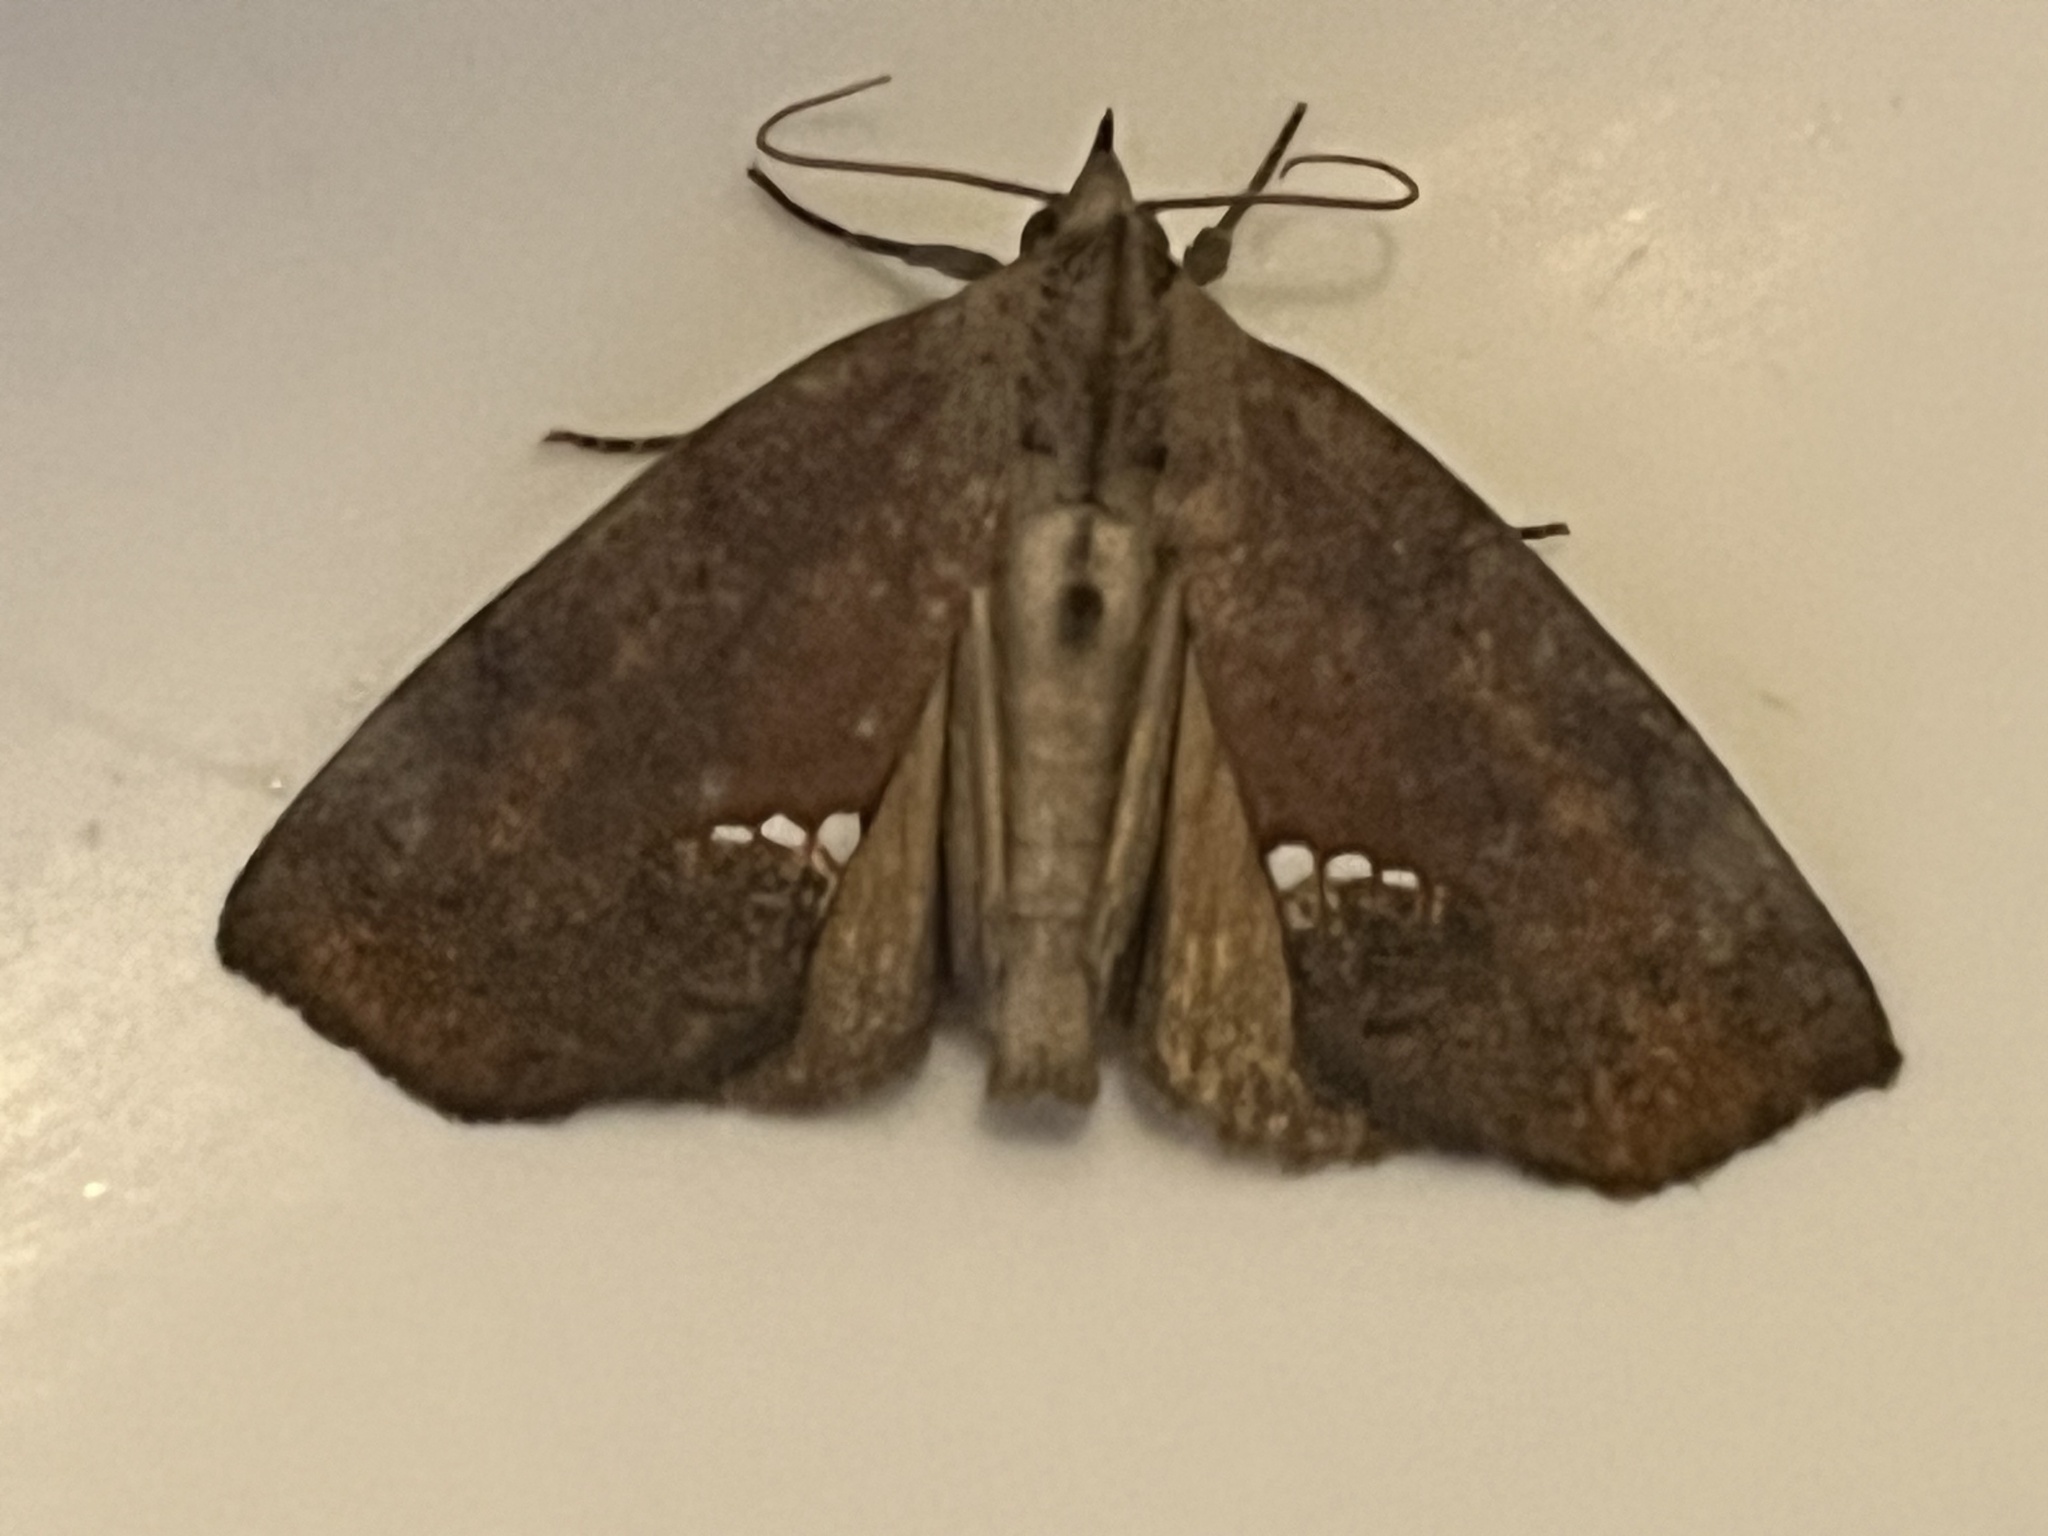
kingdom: Animalia
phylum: Arthropoda
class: Insecta
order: Lepidoptera
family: Erebidae
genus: Hypsoropha
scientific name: Hypsoropha hormos
